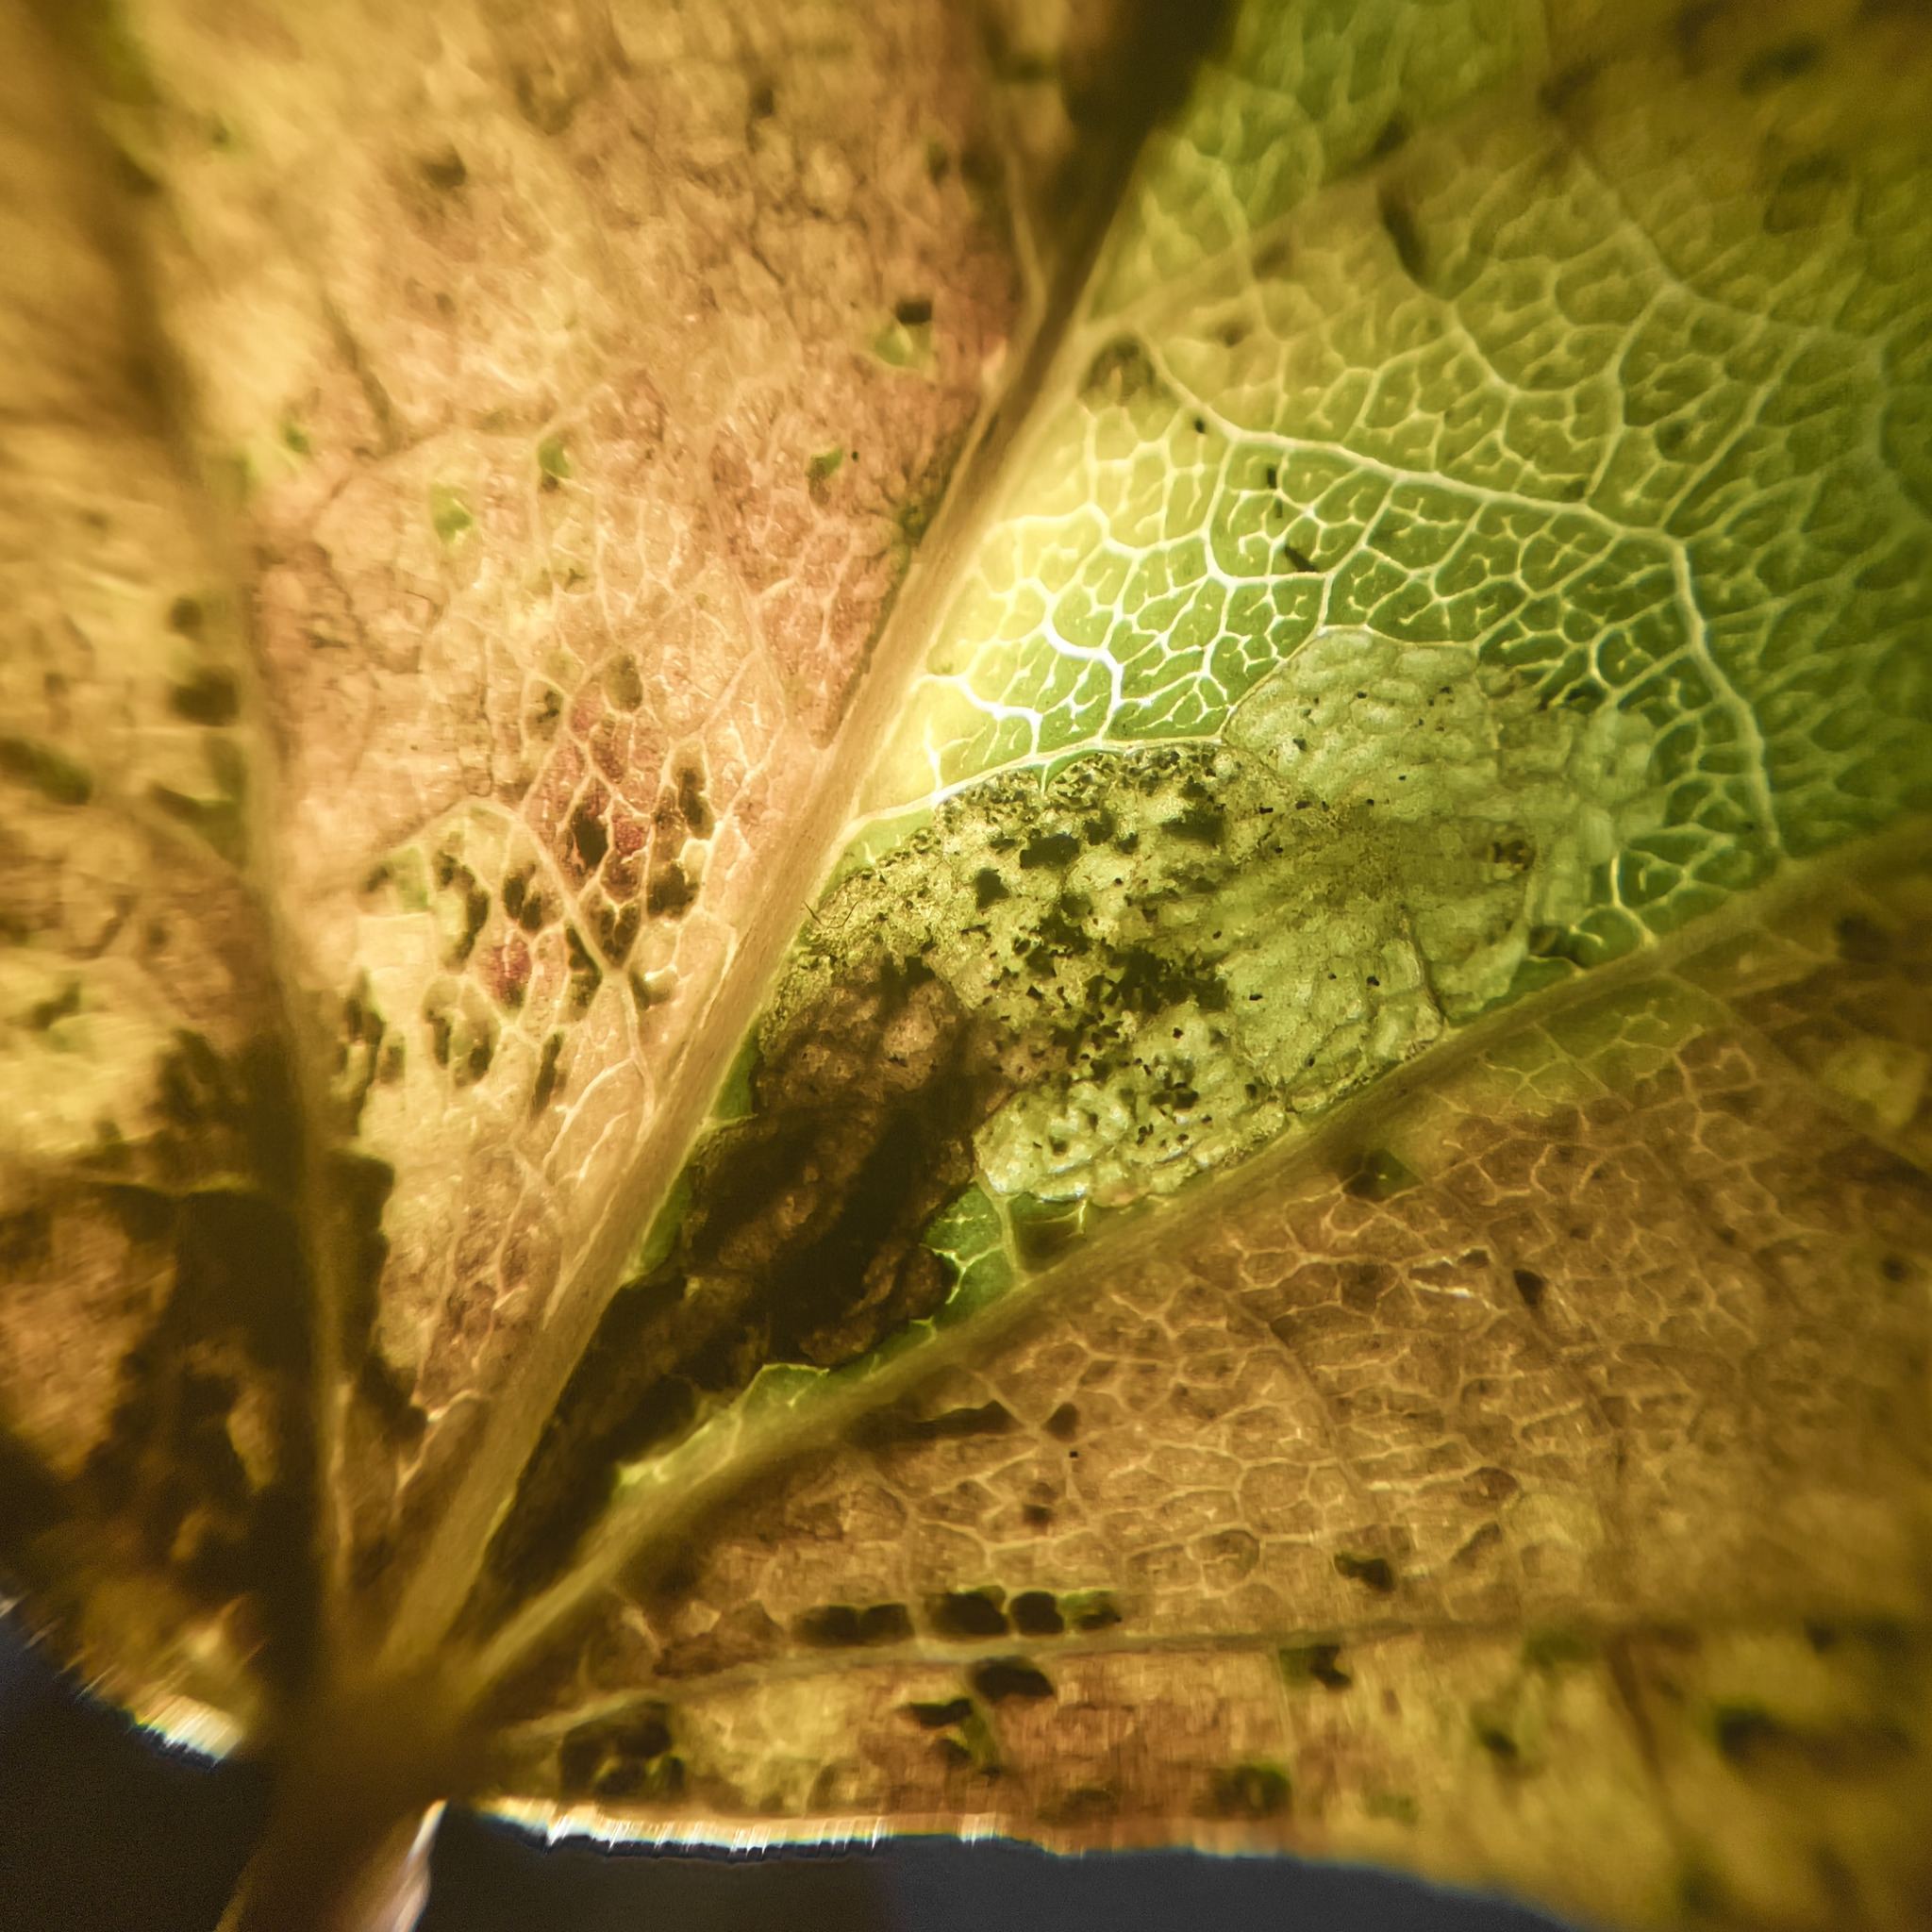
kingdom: Animalia
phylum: Arthropoda
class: Insecta
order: Lepidoptera
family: Nepticulidae
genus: Ectoedemia
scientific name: Ectoedemia argyropeza
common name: Virgin pigmy
